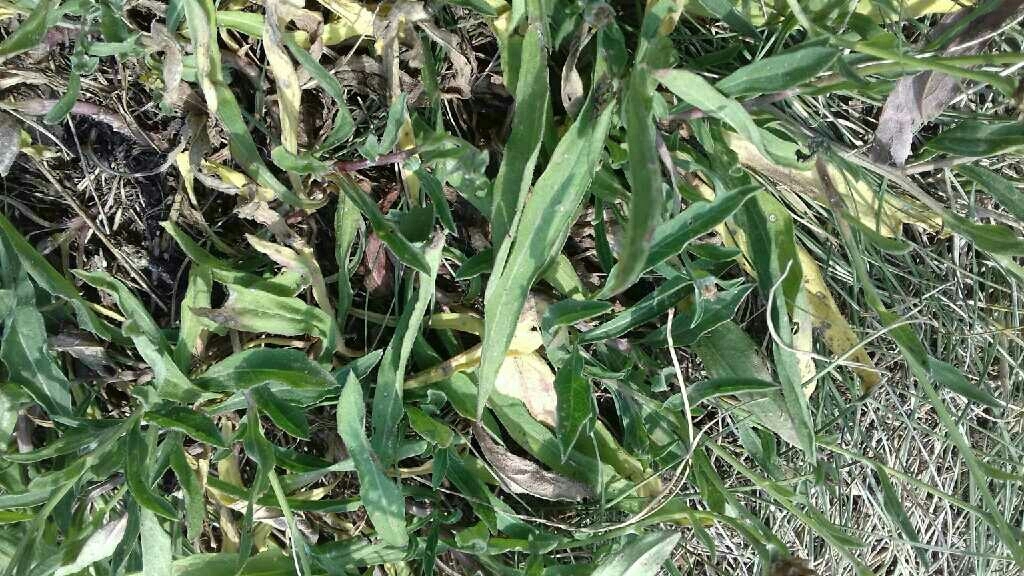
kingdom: Plantae
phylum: Tracheophyta
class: Magnoliopsida
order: Asterales
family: Asteraceae
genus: Centaurea
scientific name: Centaurea jacea
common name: Brown knapweed
